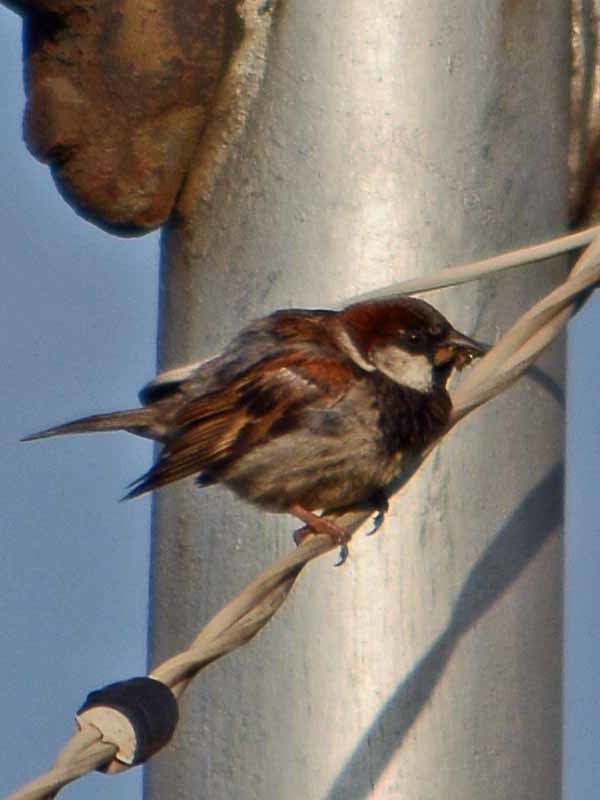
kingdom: Animalia
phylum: Chordata
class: Aves
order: Passeriformes
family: Passeridae
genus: Passer
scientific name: Passer domesticus
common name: House sparrow
